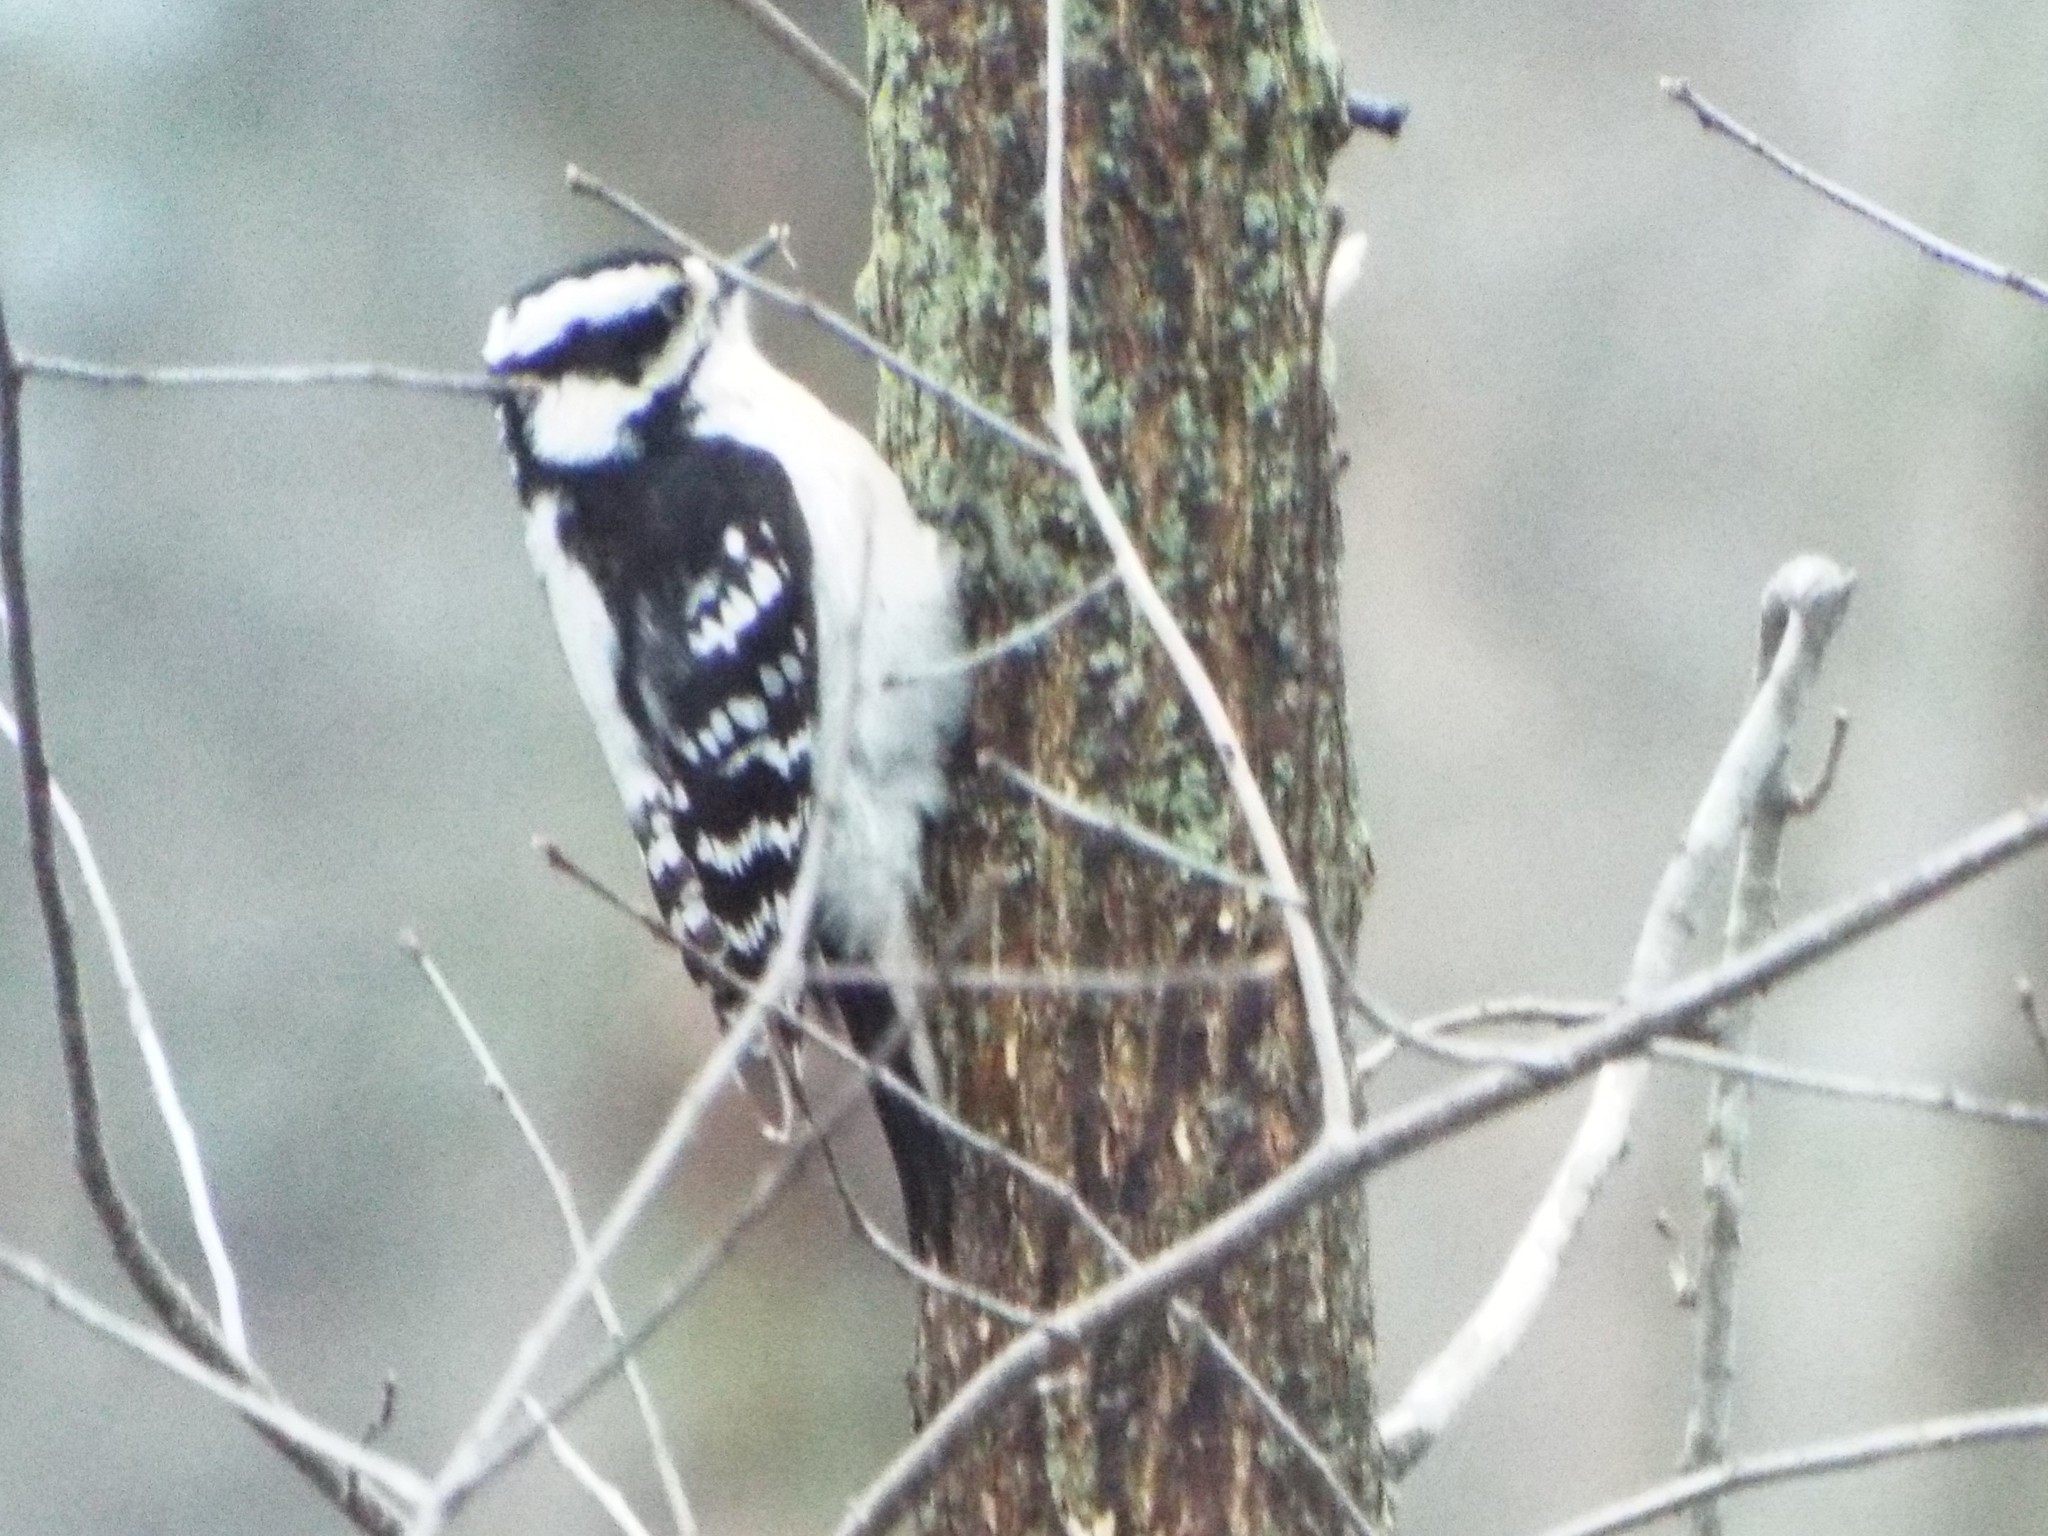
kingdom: Animalia
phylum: Chordata
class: Aves
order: Piciformes
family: Picidae
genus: Dryobates
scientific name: Dryobates pubescens
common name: Downy woodpecker
